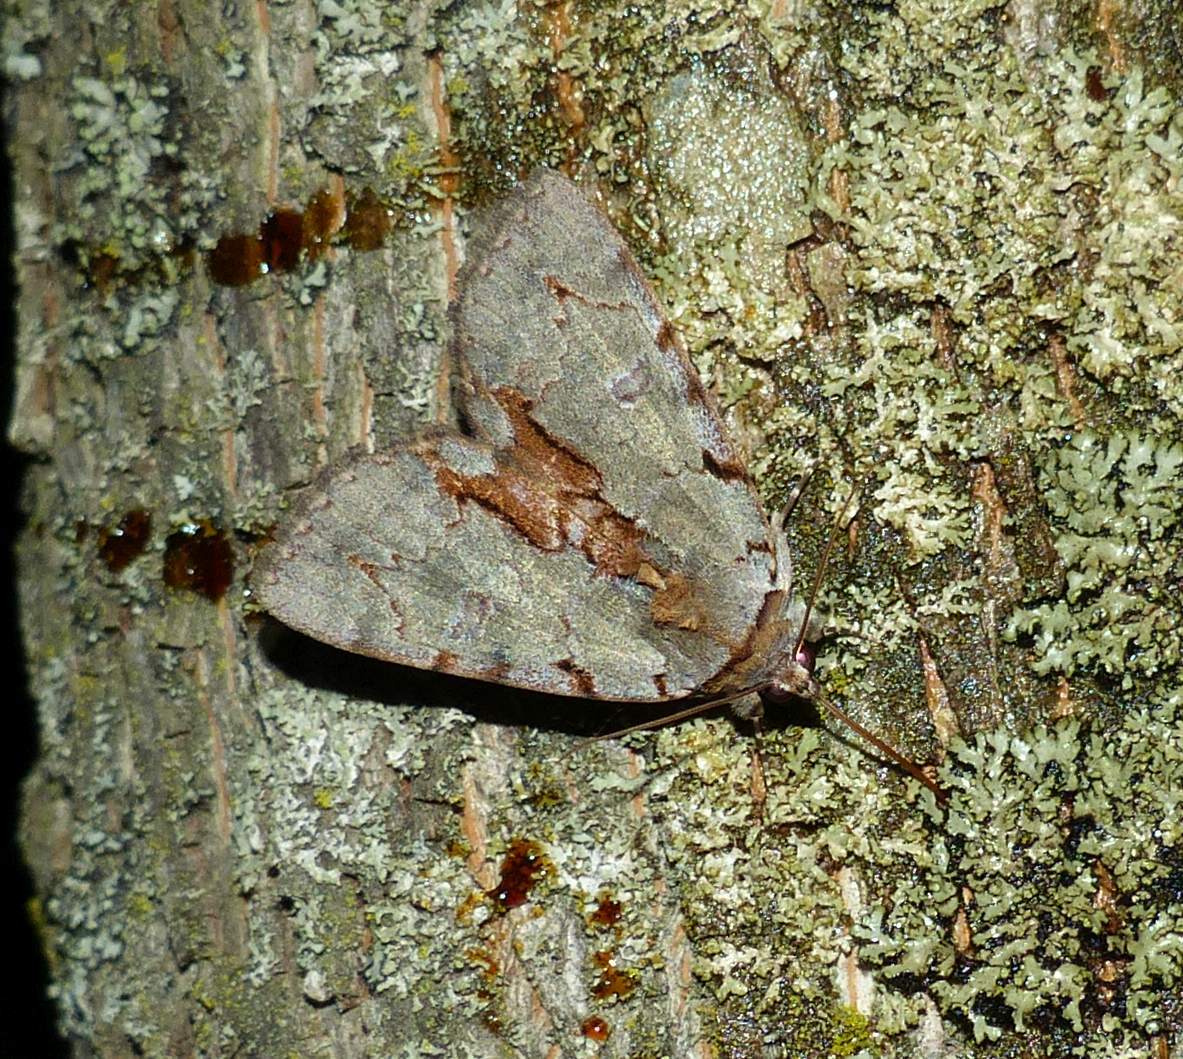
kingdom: Animalia
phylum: Arthropoda
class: Insecta
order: Lepidoptera
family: Erebidae
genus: Catocala
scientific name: Catocala grynea
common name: Woody underwing
